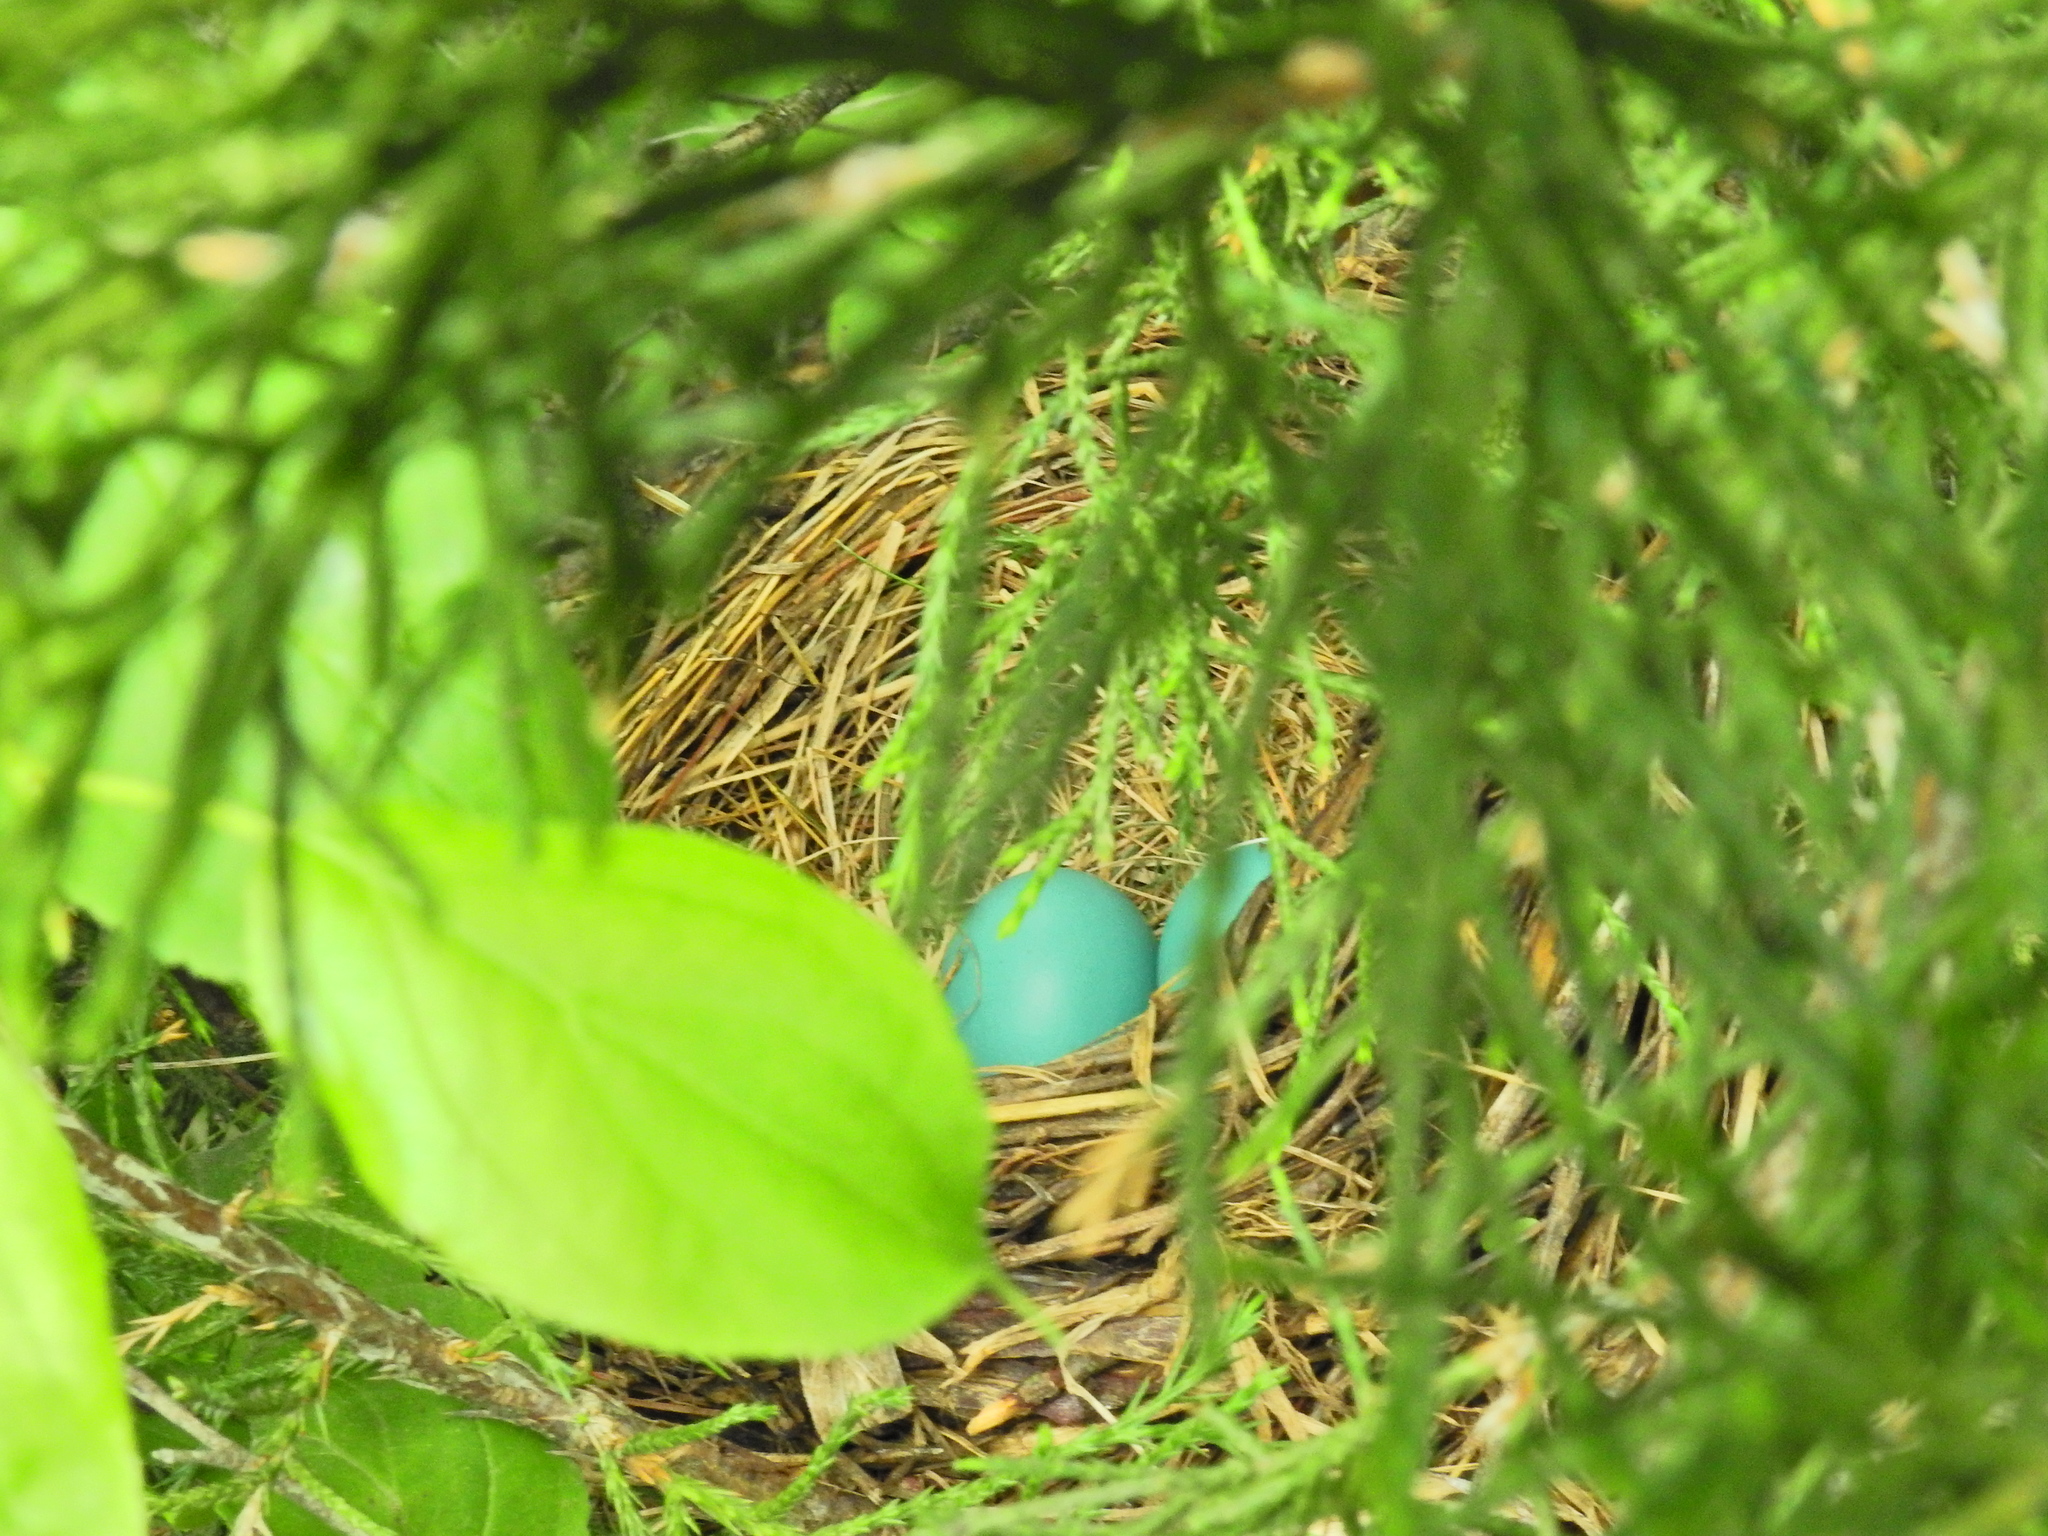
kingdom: Animalia
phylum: Chordata
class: Aves
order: Passeriformes
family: Turdidae
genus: Turdus
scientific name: Turdus migratorius
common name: American robin
